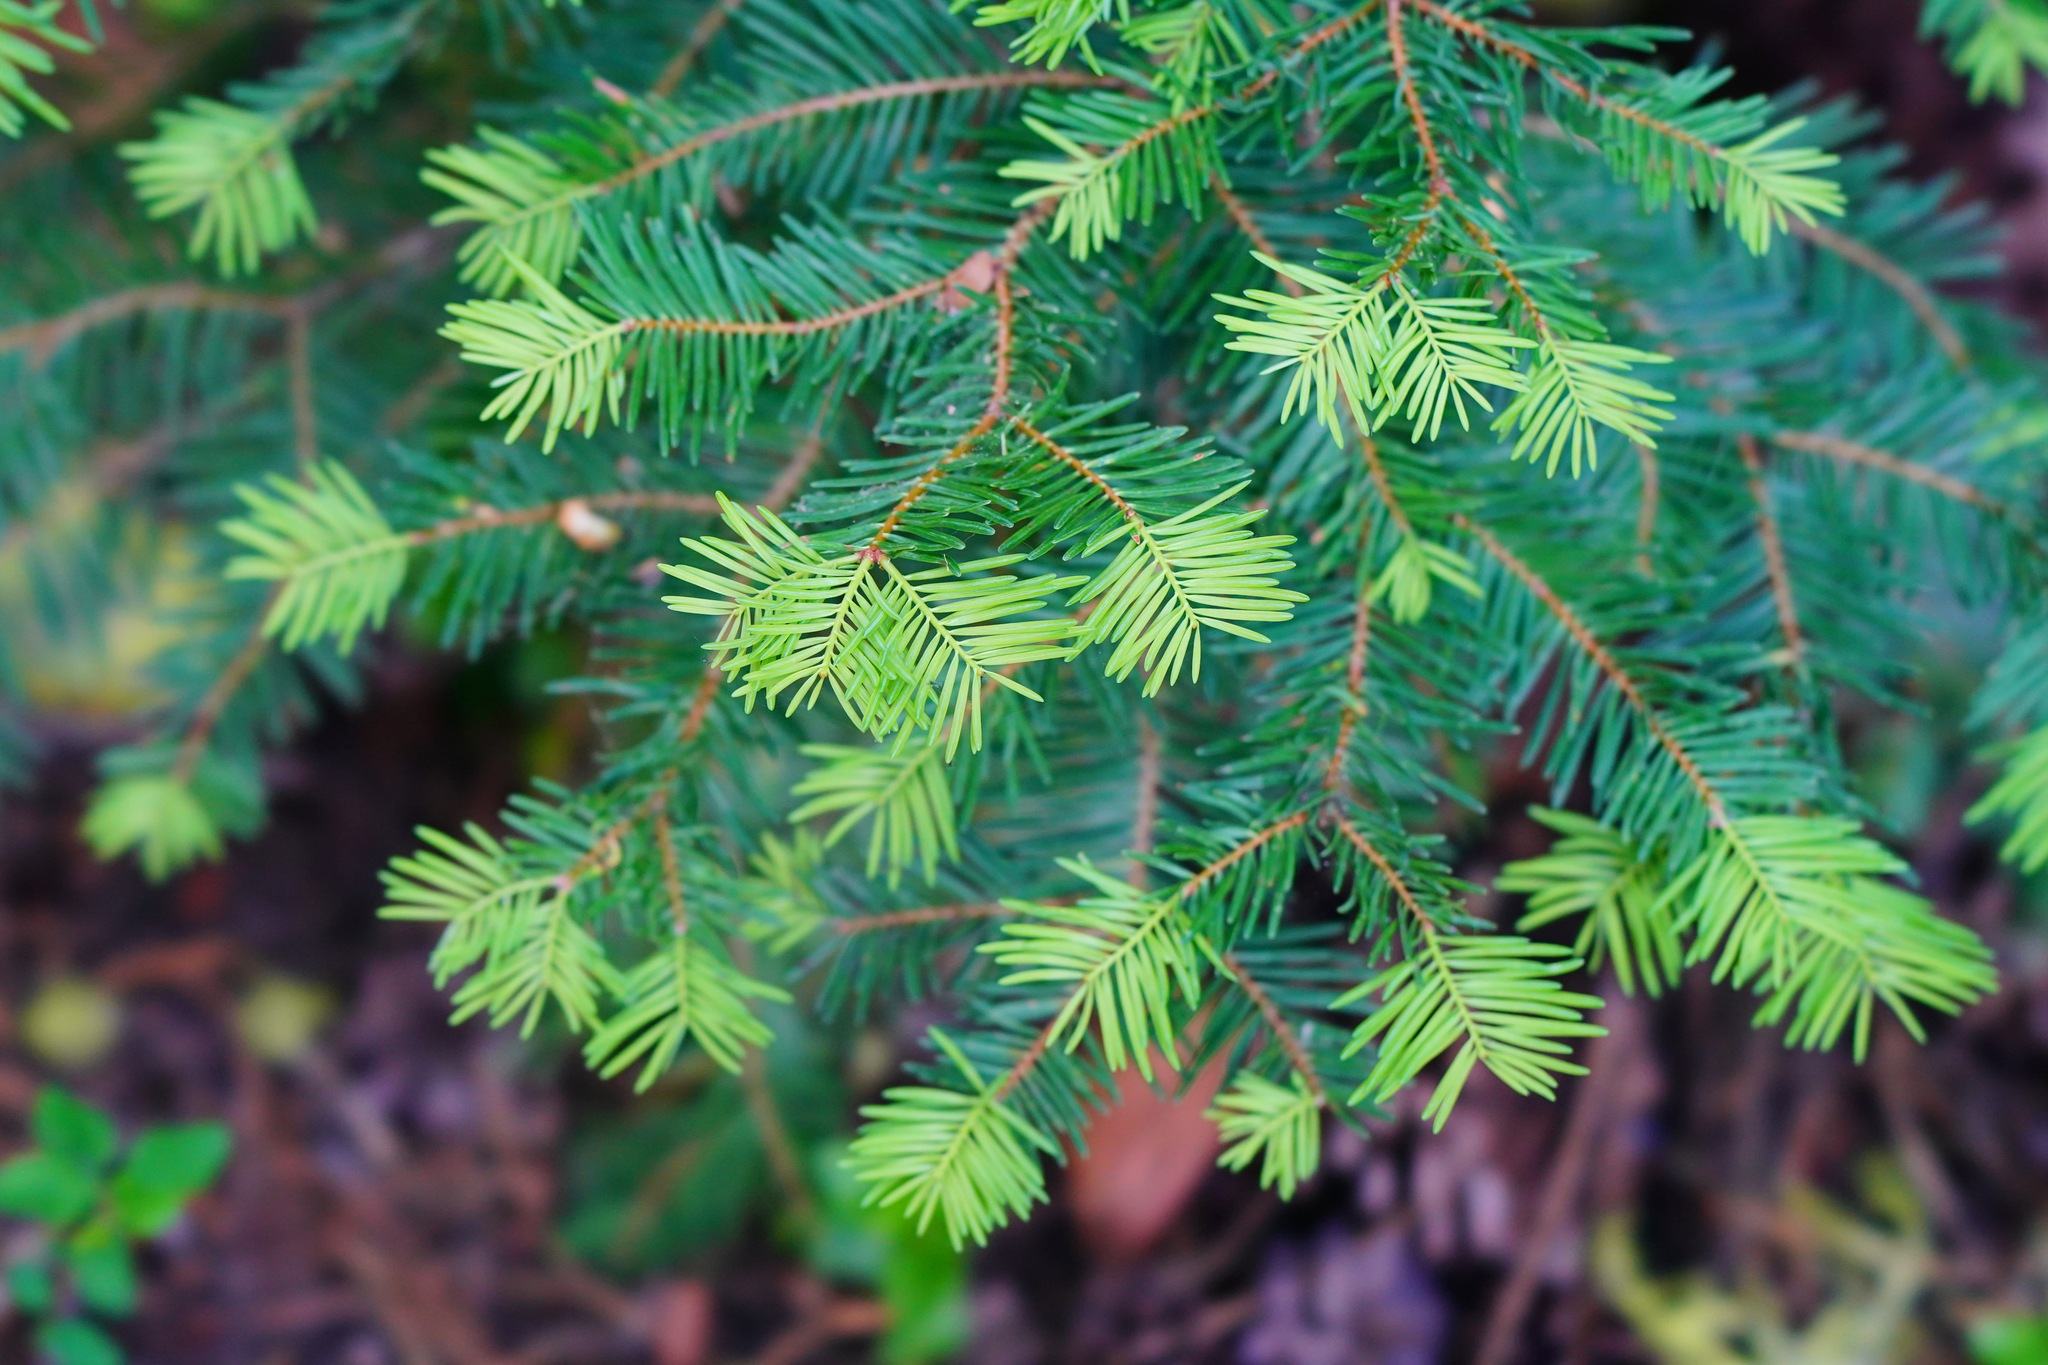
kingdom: Plantae
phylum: Tracheophyta
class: Pinopsida
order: Pinales
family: Pinaceae
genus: Abies
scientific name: Abies concolor
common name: Colorado fir
